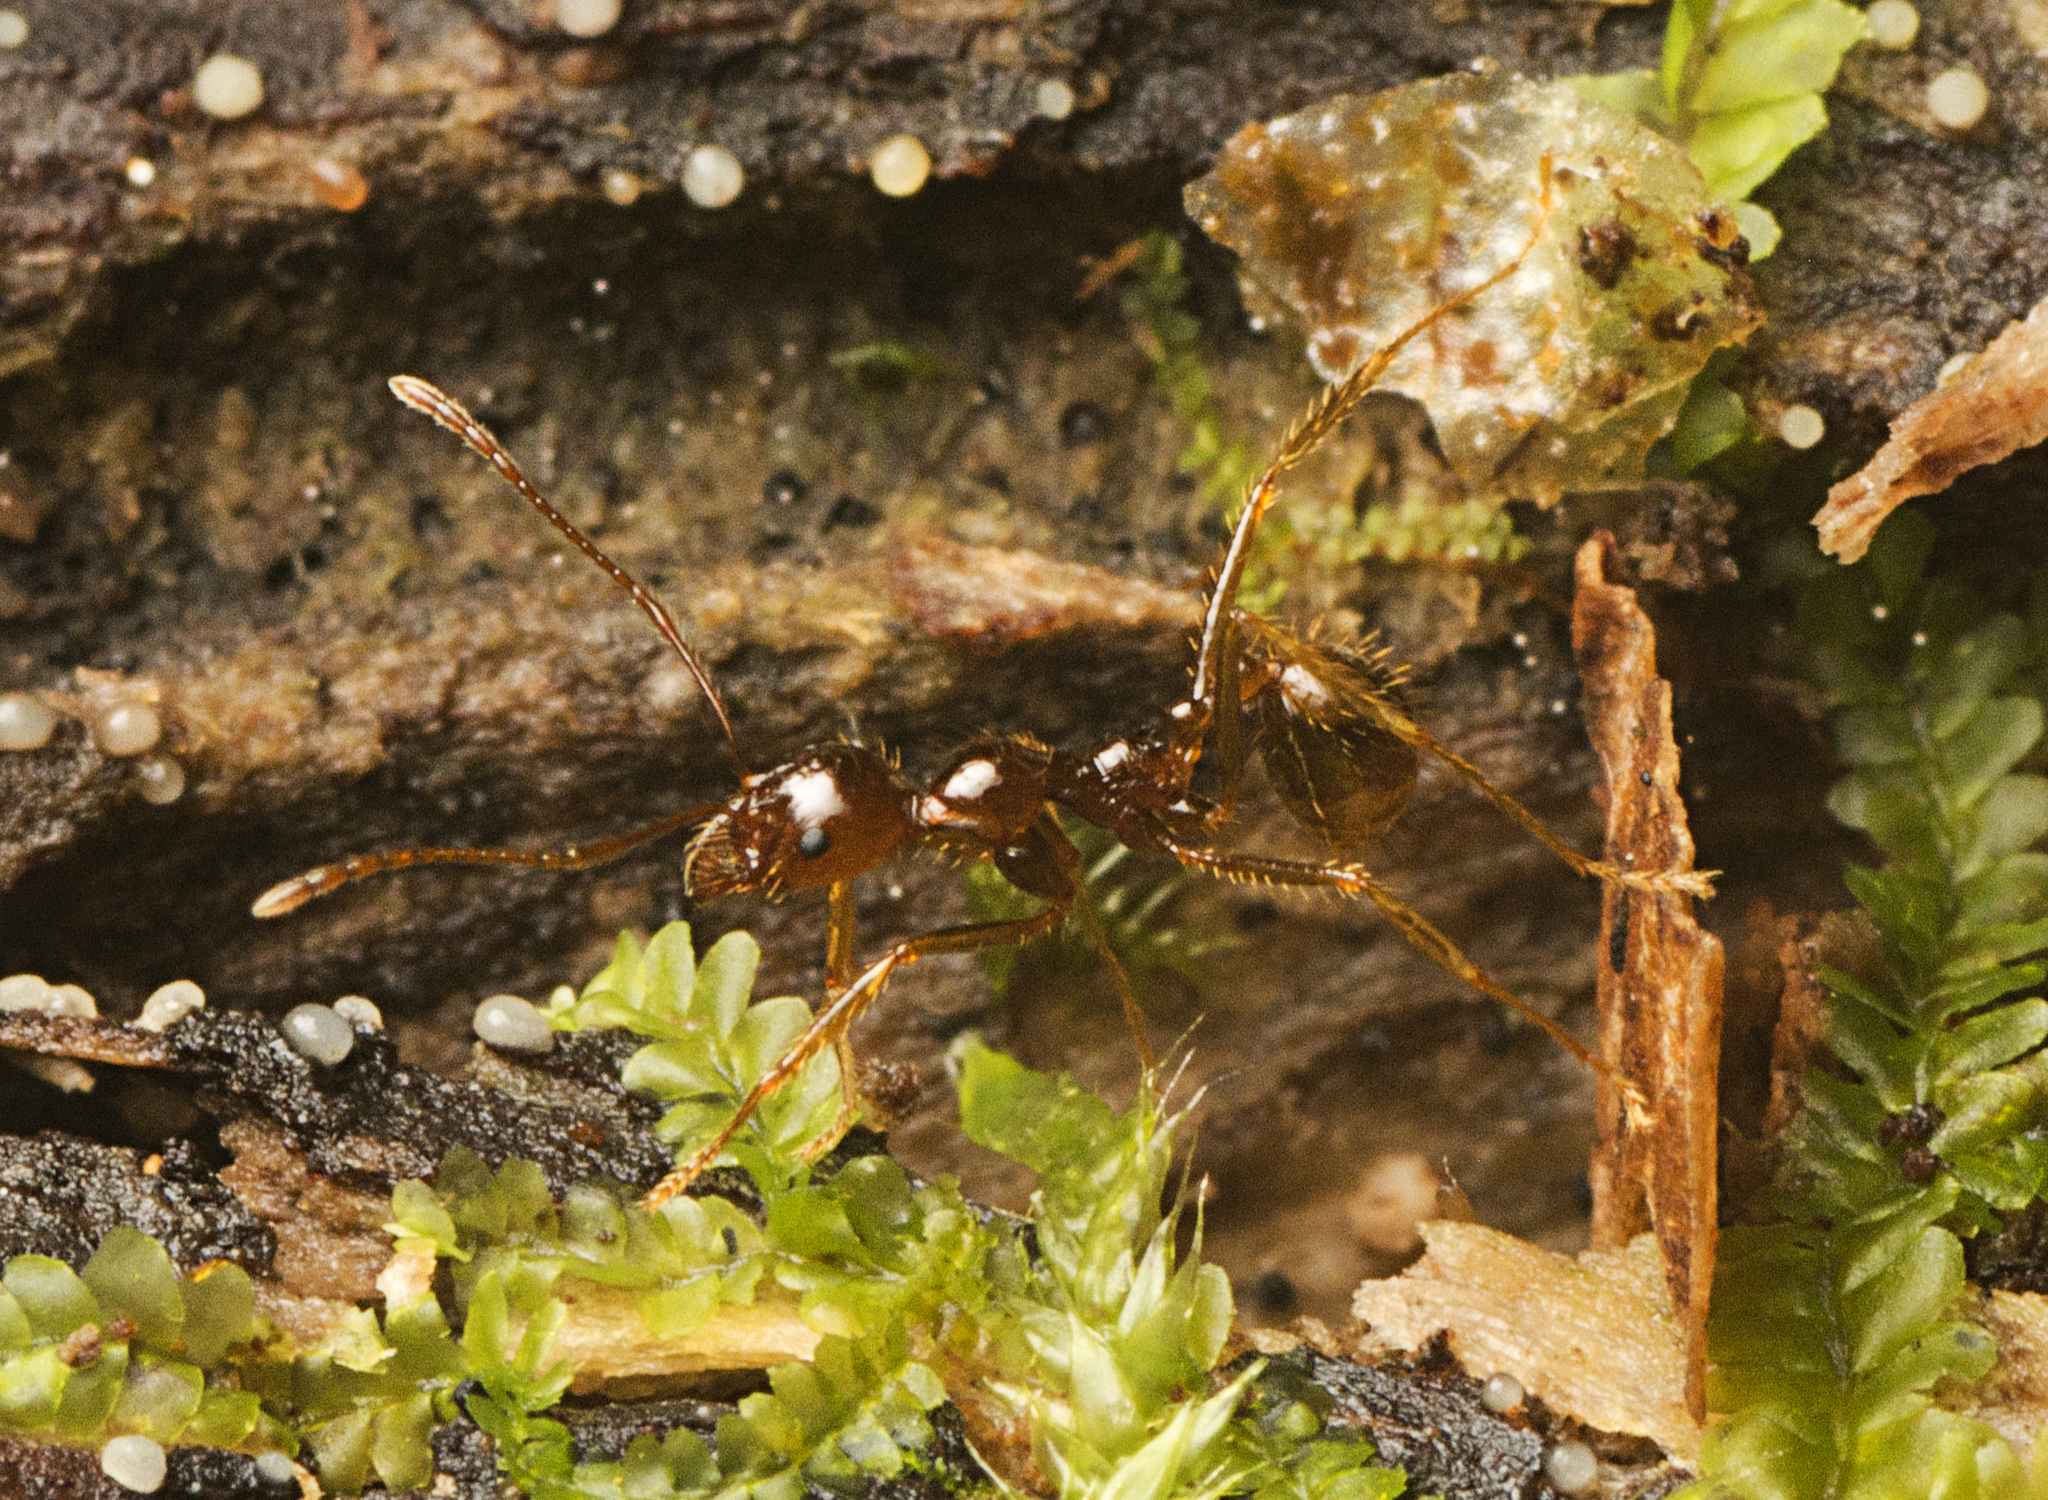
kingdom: Animalia
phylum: Arthropoda
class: Insecta
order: Hymenoptera
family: Formicidae
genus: Aphaenogaster
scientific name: Aphaenogaster longiceps
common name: Funnel ant
